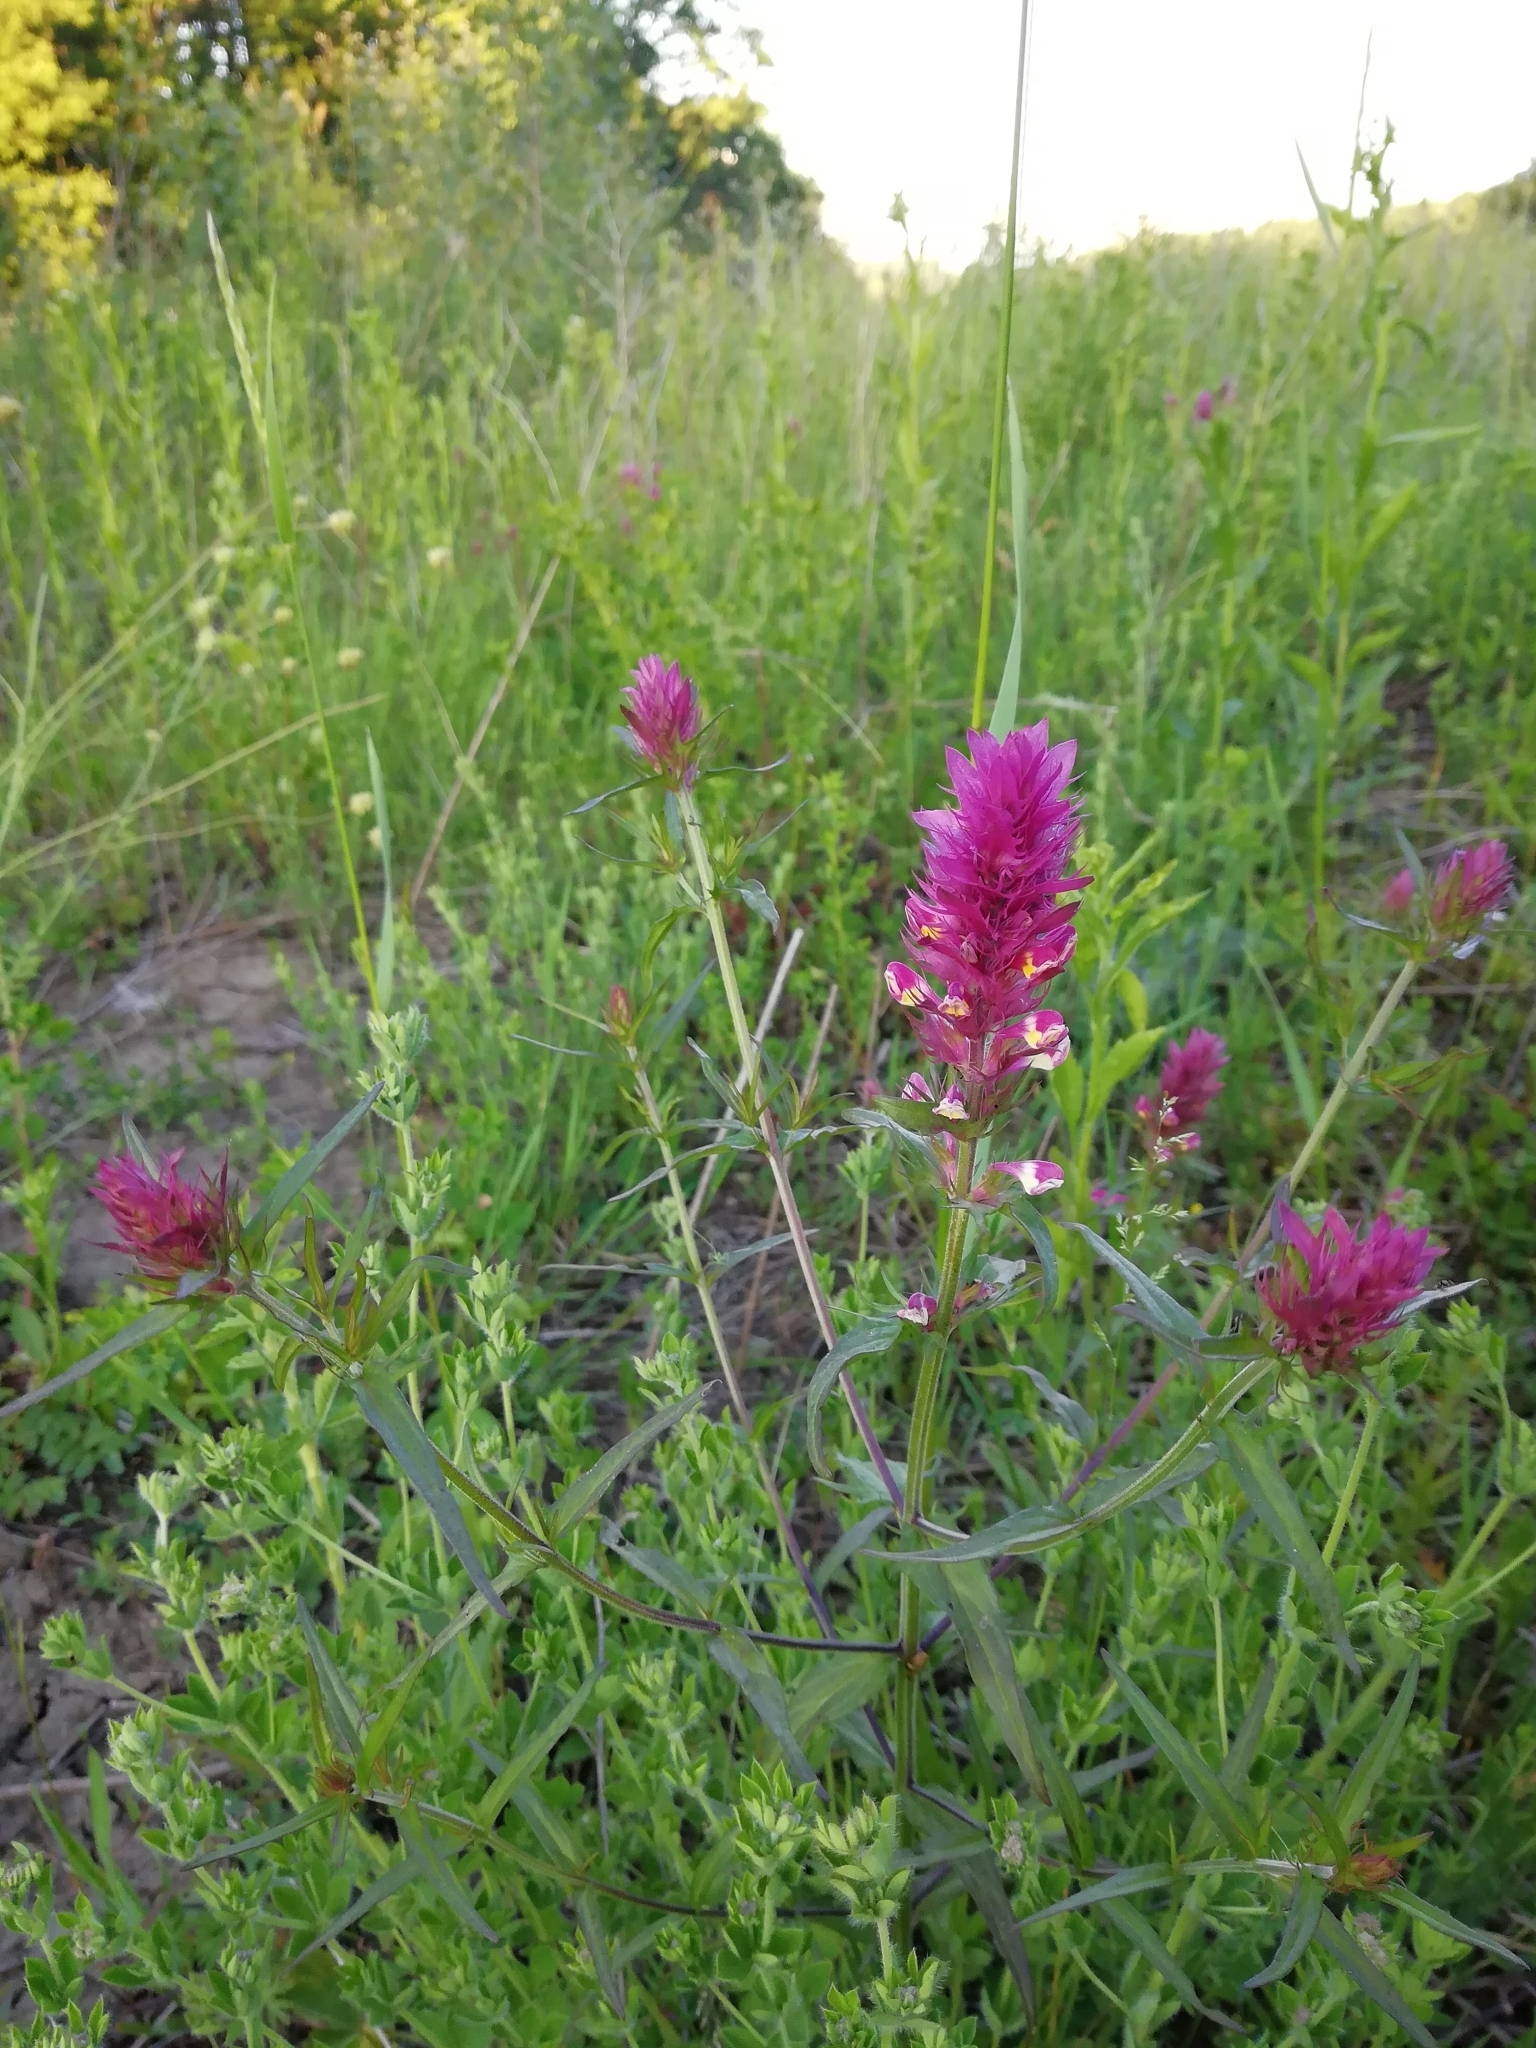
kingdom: Plantae
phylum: Tracheophyta
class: Magnoliopsida
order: Lamiales
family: Orobanchaceae
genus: Melampyrum
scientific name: Melampyrum arvense
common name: Field cow-wheat
